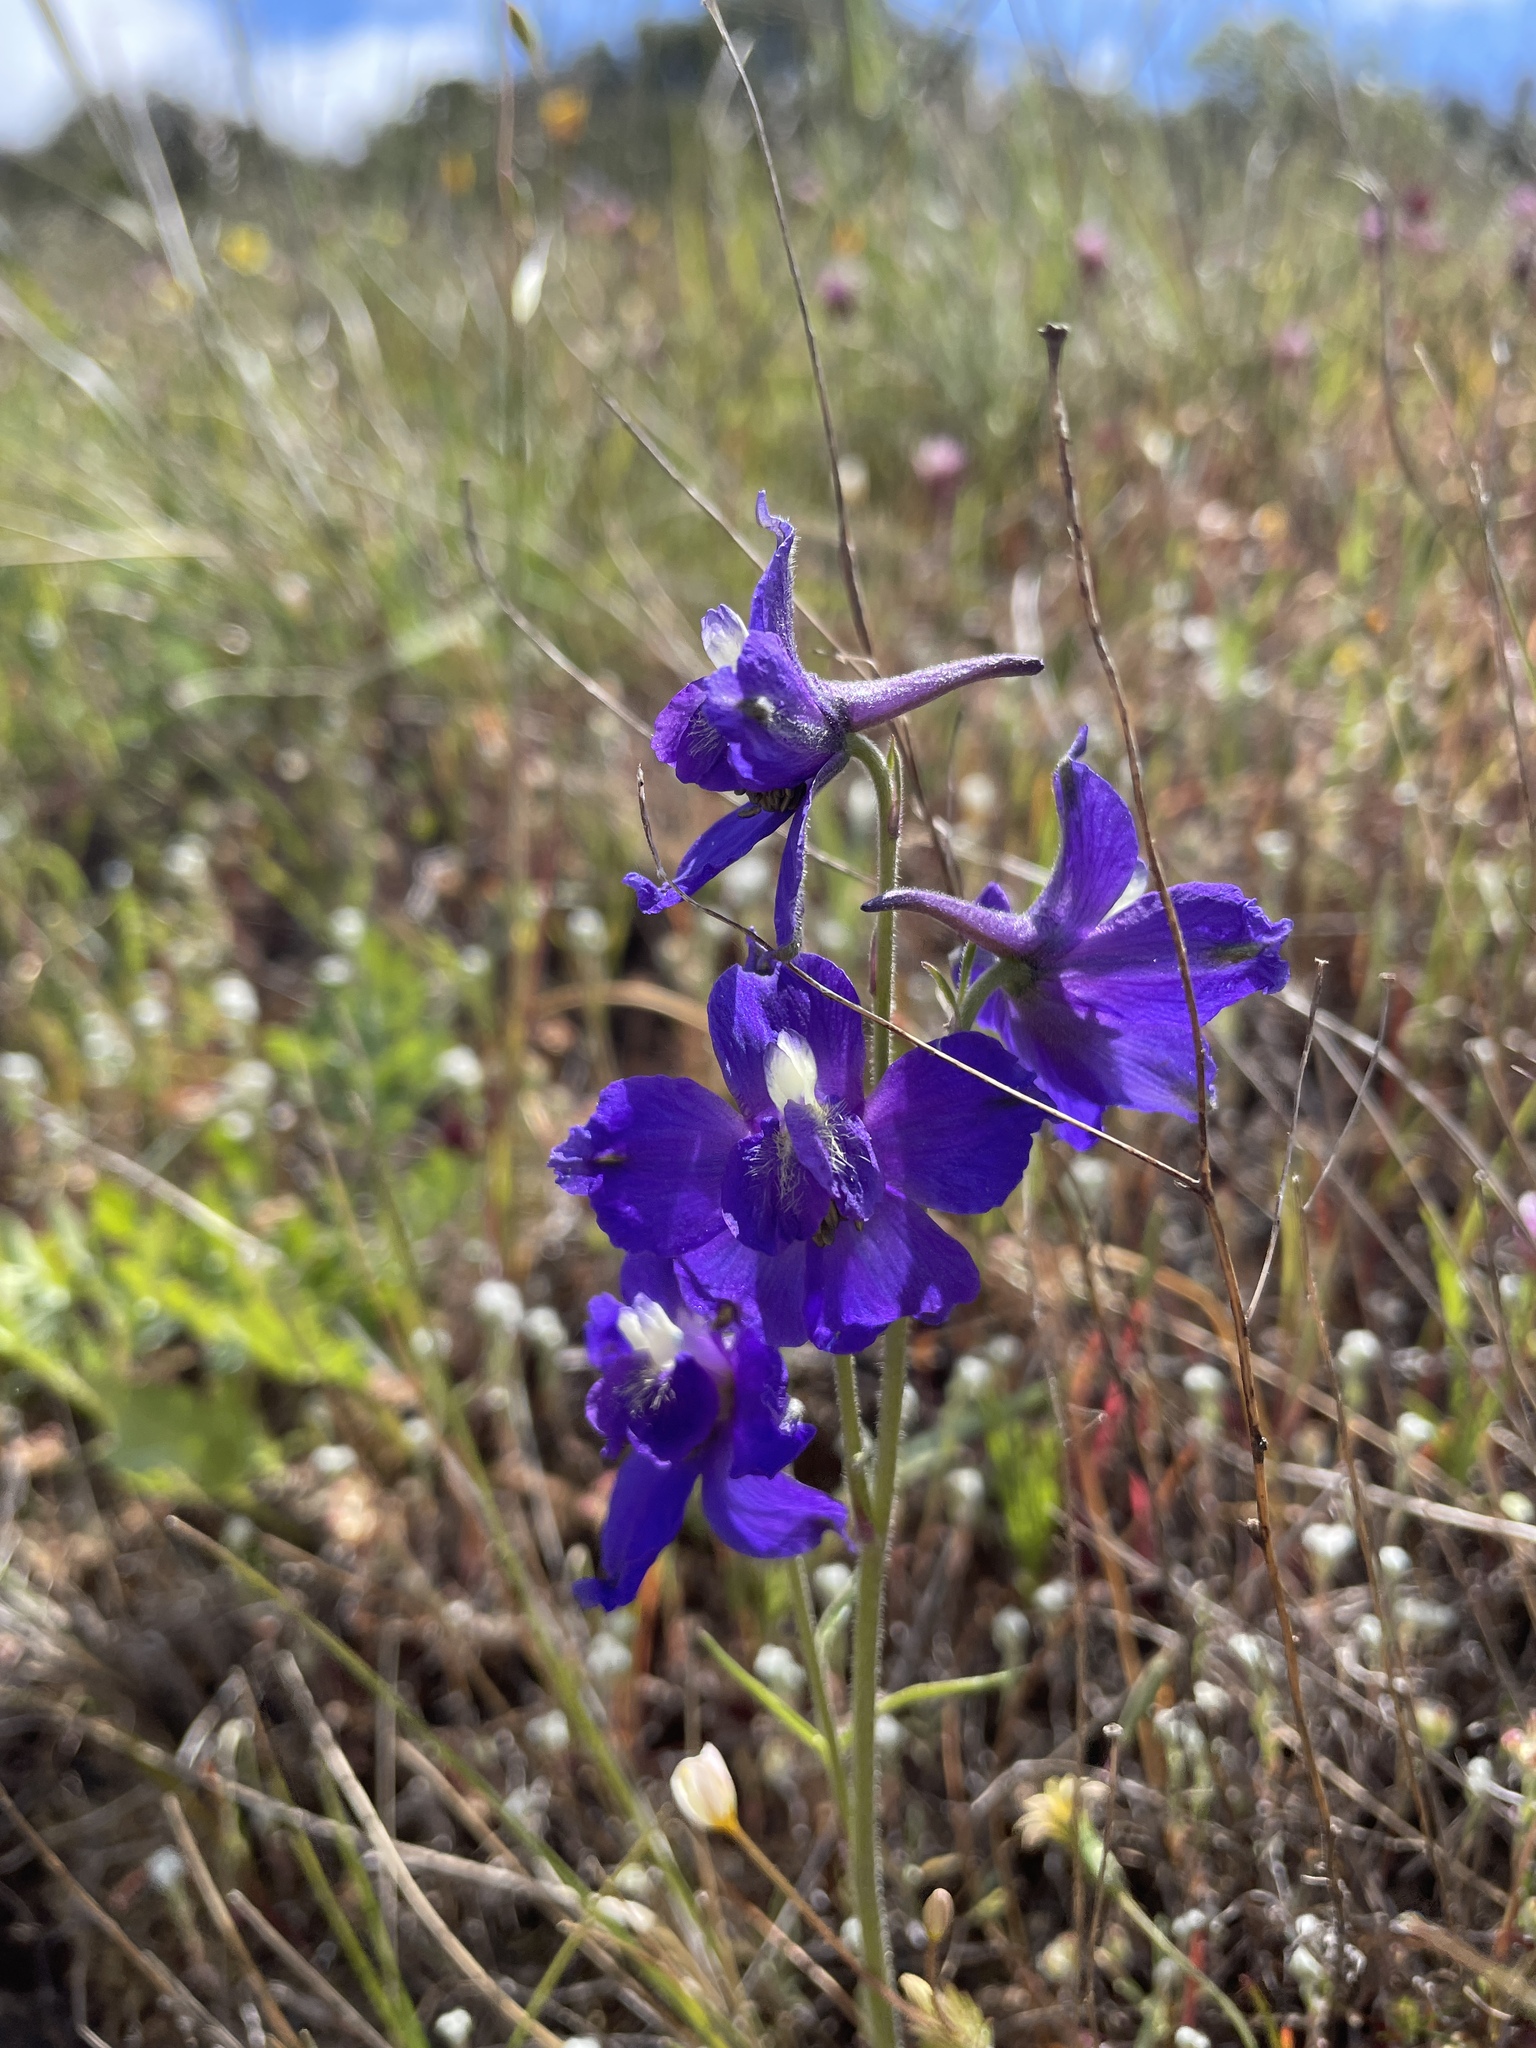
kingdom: Plantae
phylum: Tracheophyta
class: Magnoliopsida
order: Ranunculales
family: Ranunculaceae
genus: Delphinium
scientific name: Delphinium variegatum
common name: Royal larkspur
